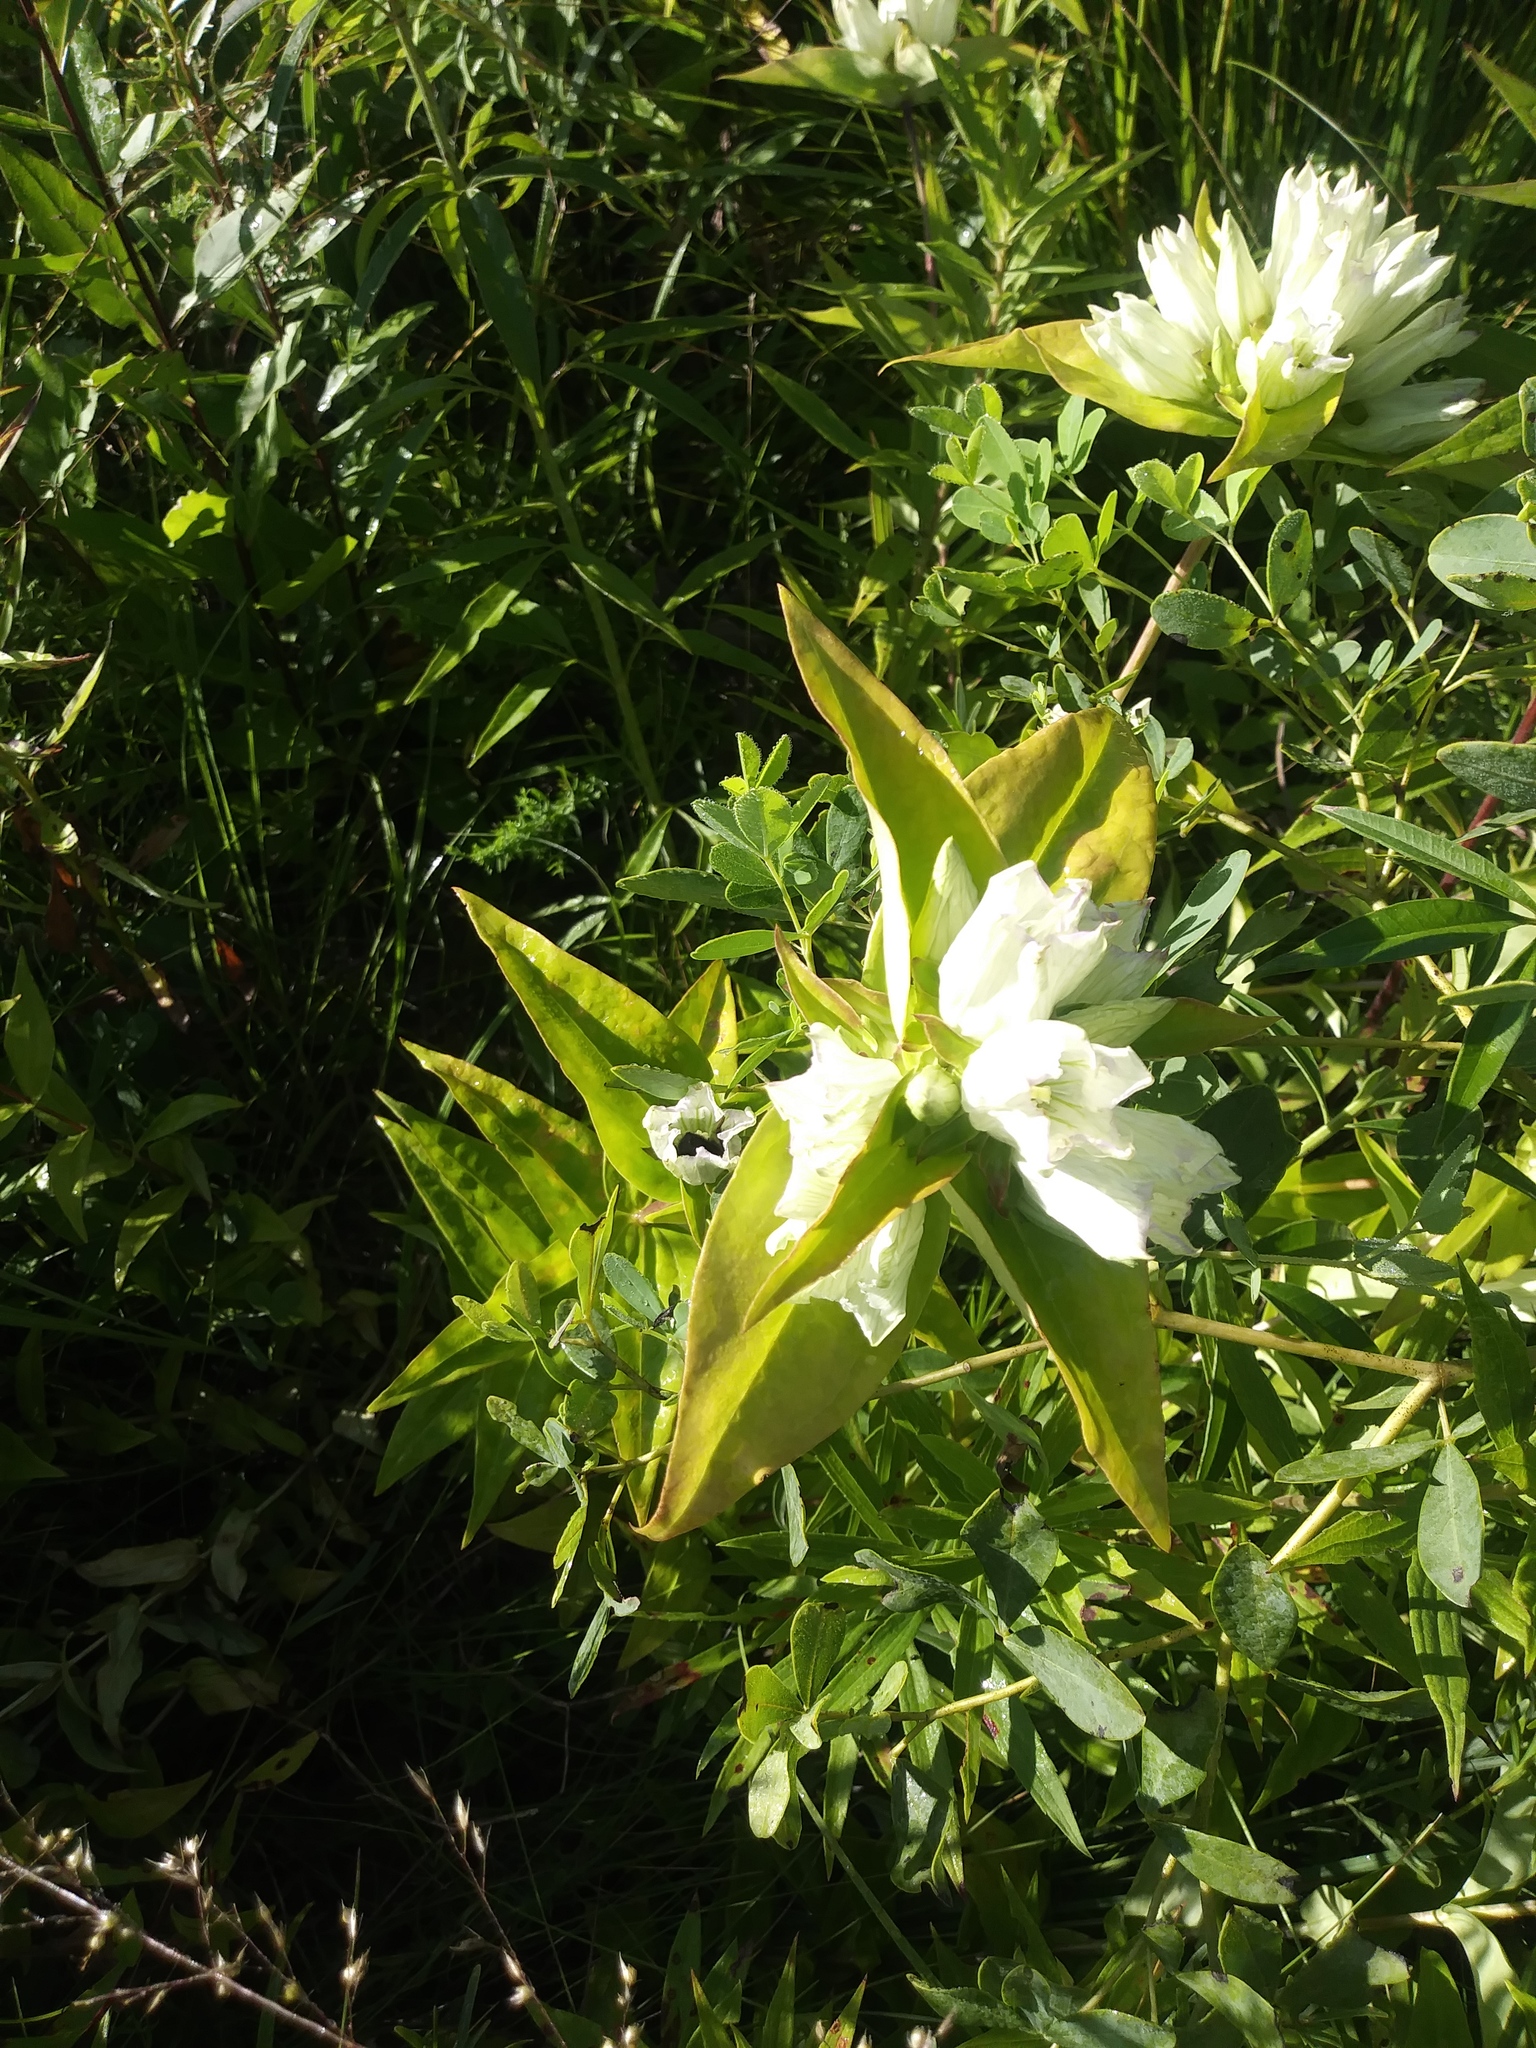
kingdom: Plantae
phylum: Tracheophyta
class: Magnoliopsida
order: Gentianales
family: Gentianaceae
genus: Gentiana
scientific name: Gentiana alba
